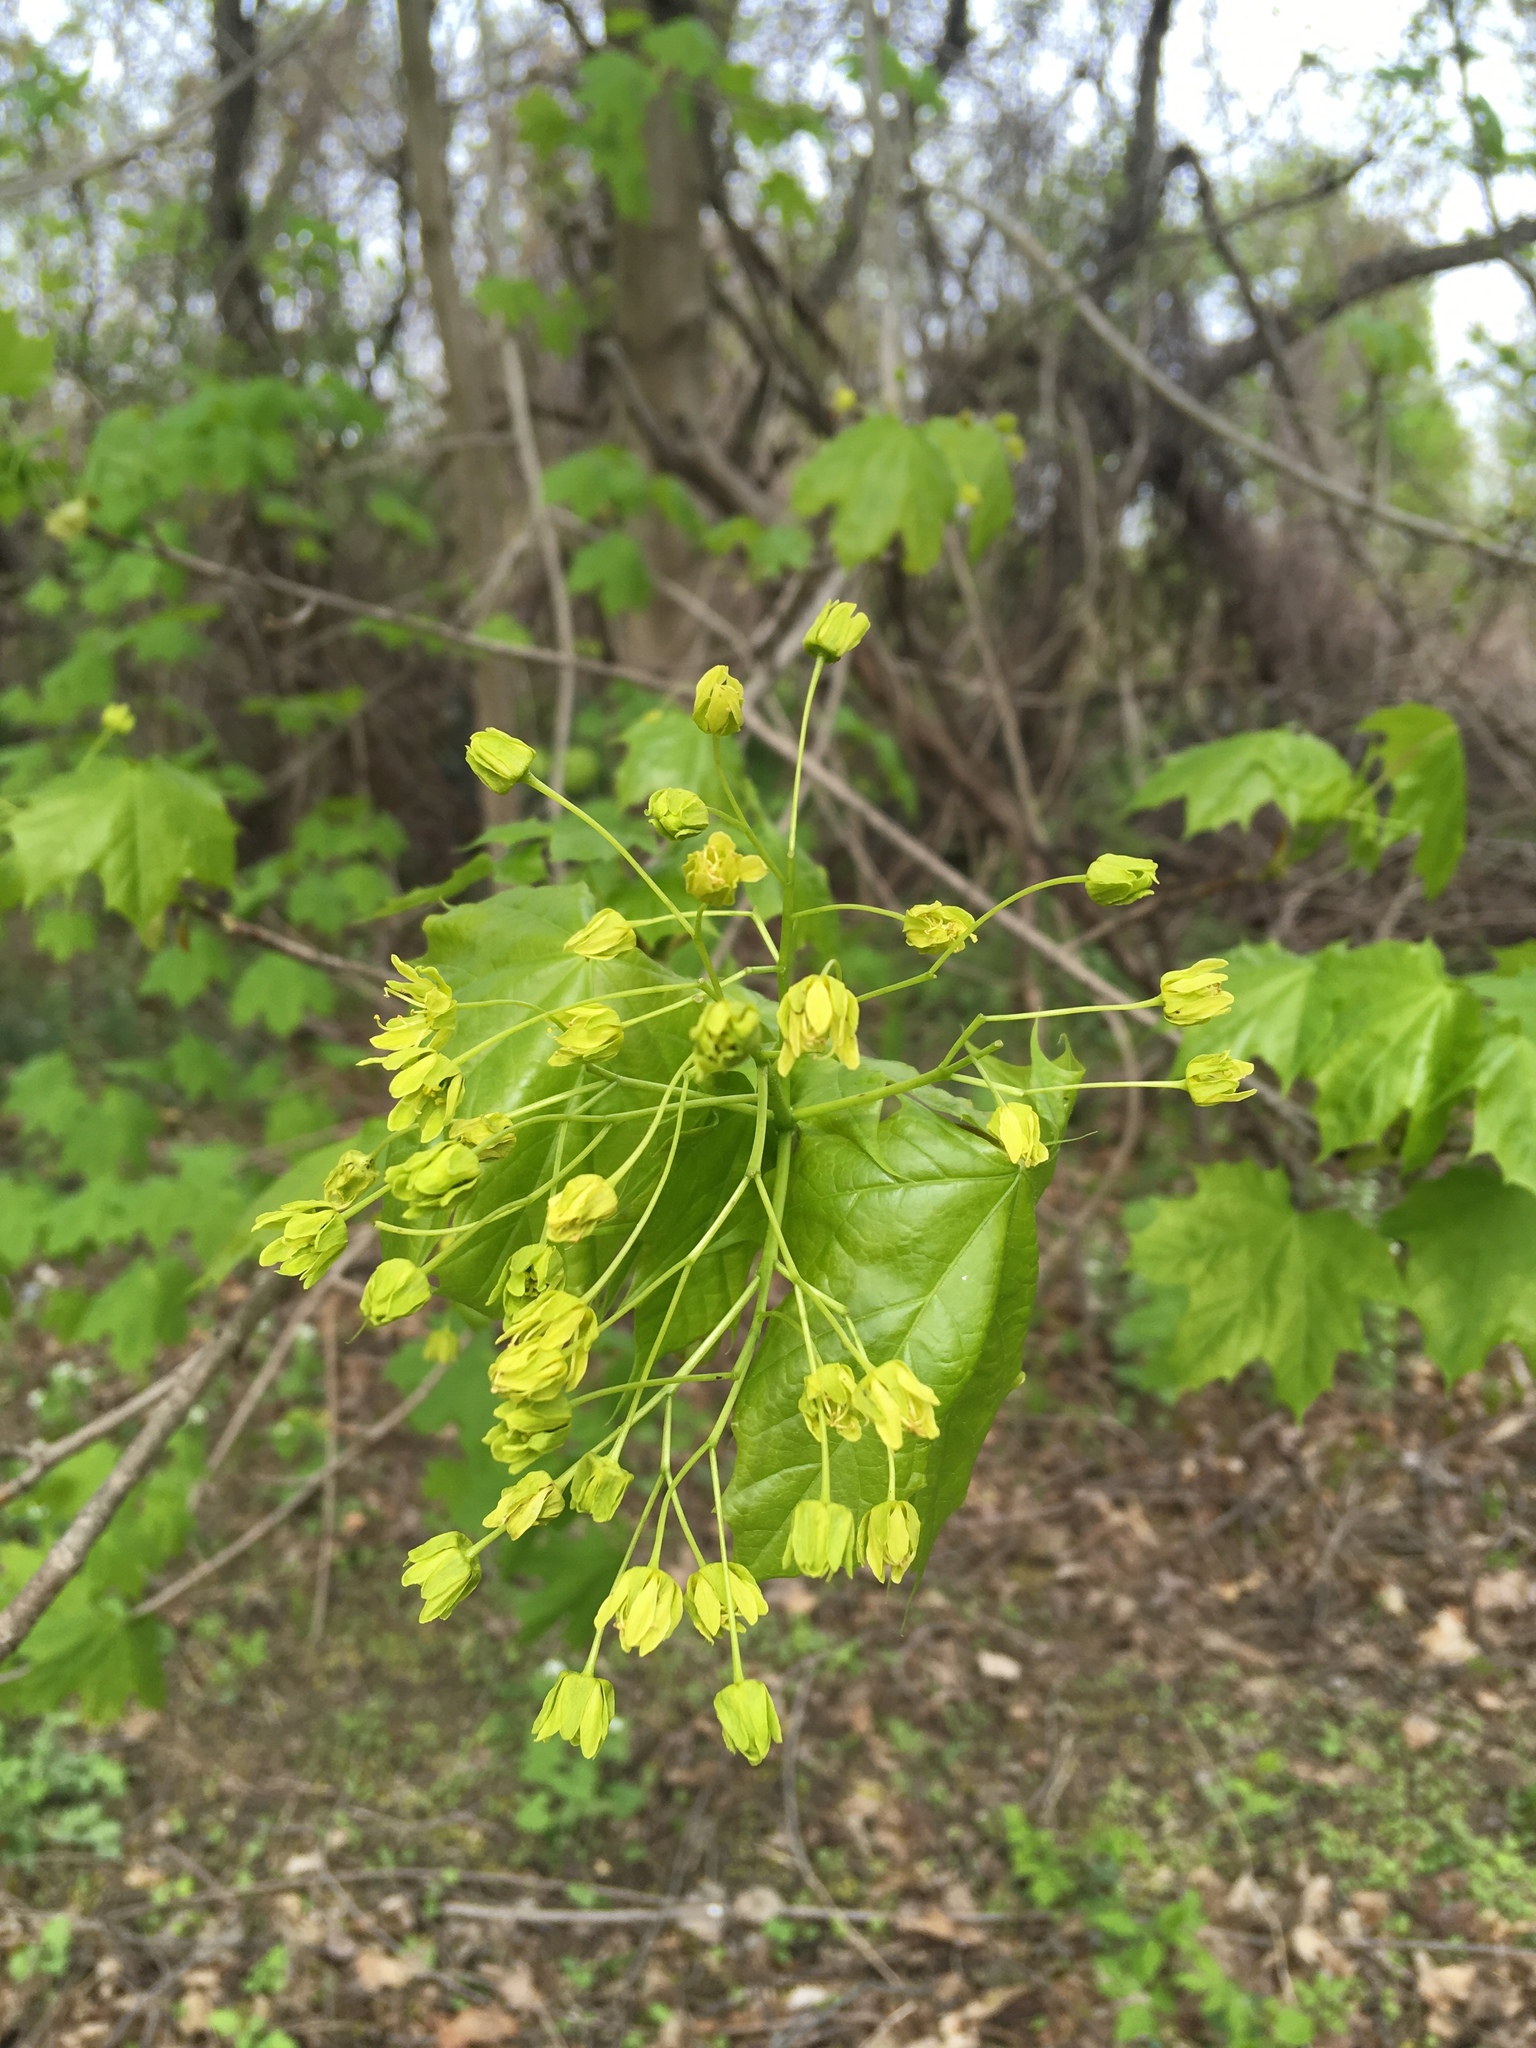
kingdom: Plantae
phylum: Tracheophyta
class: Magnoliopsida
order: Sapindales
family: Sapindaceae
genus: Acer
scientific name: Acer platanoides
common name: Norway maple
